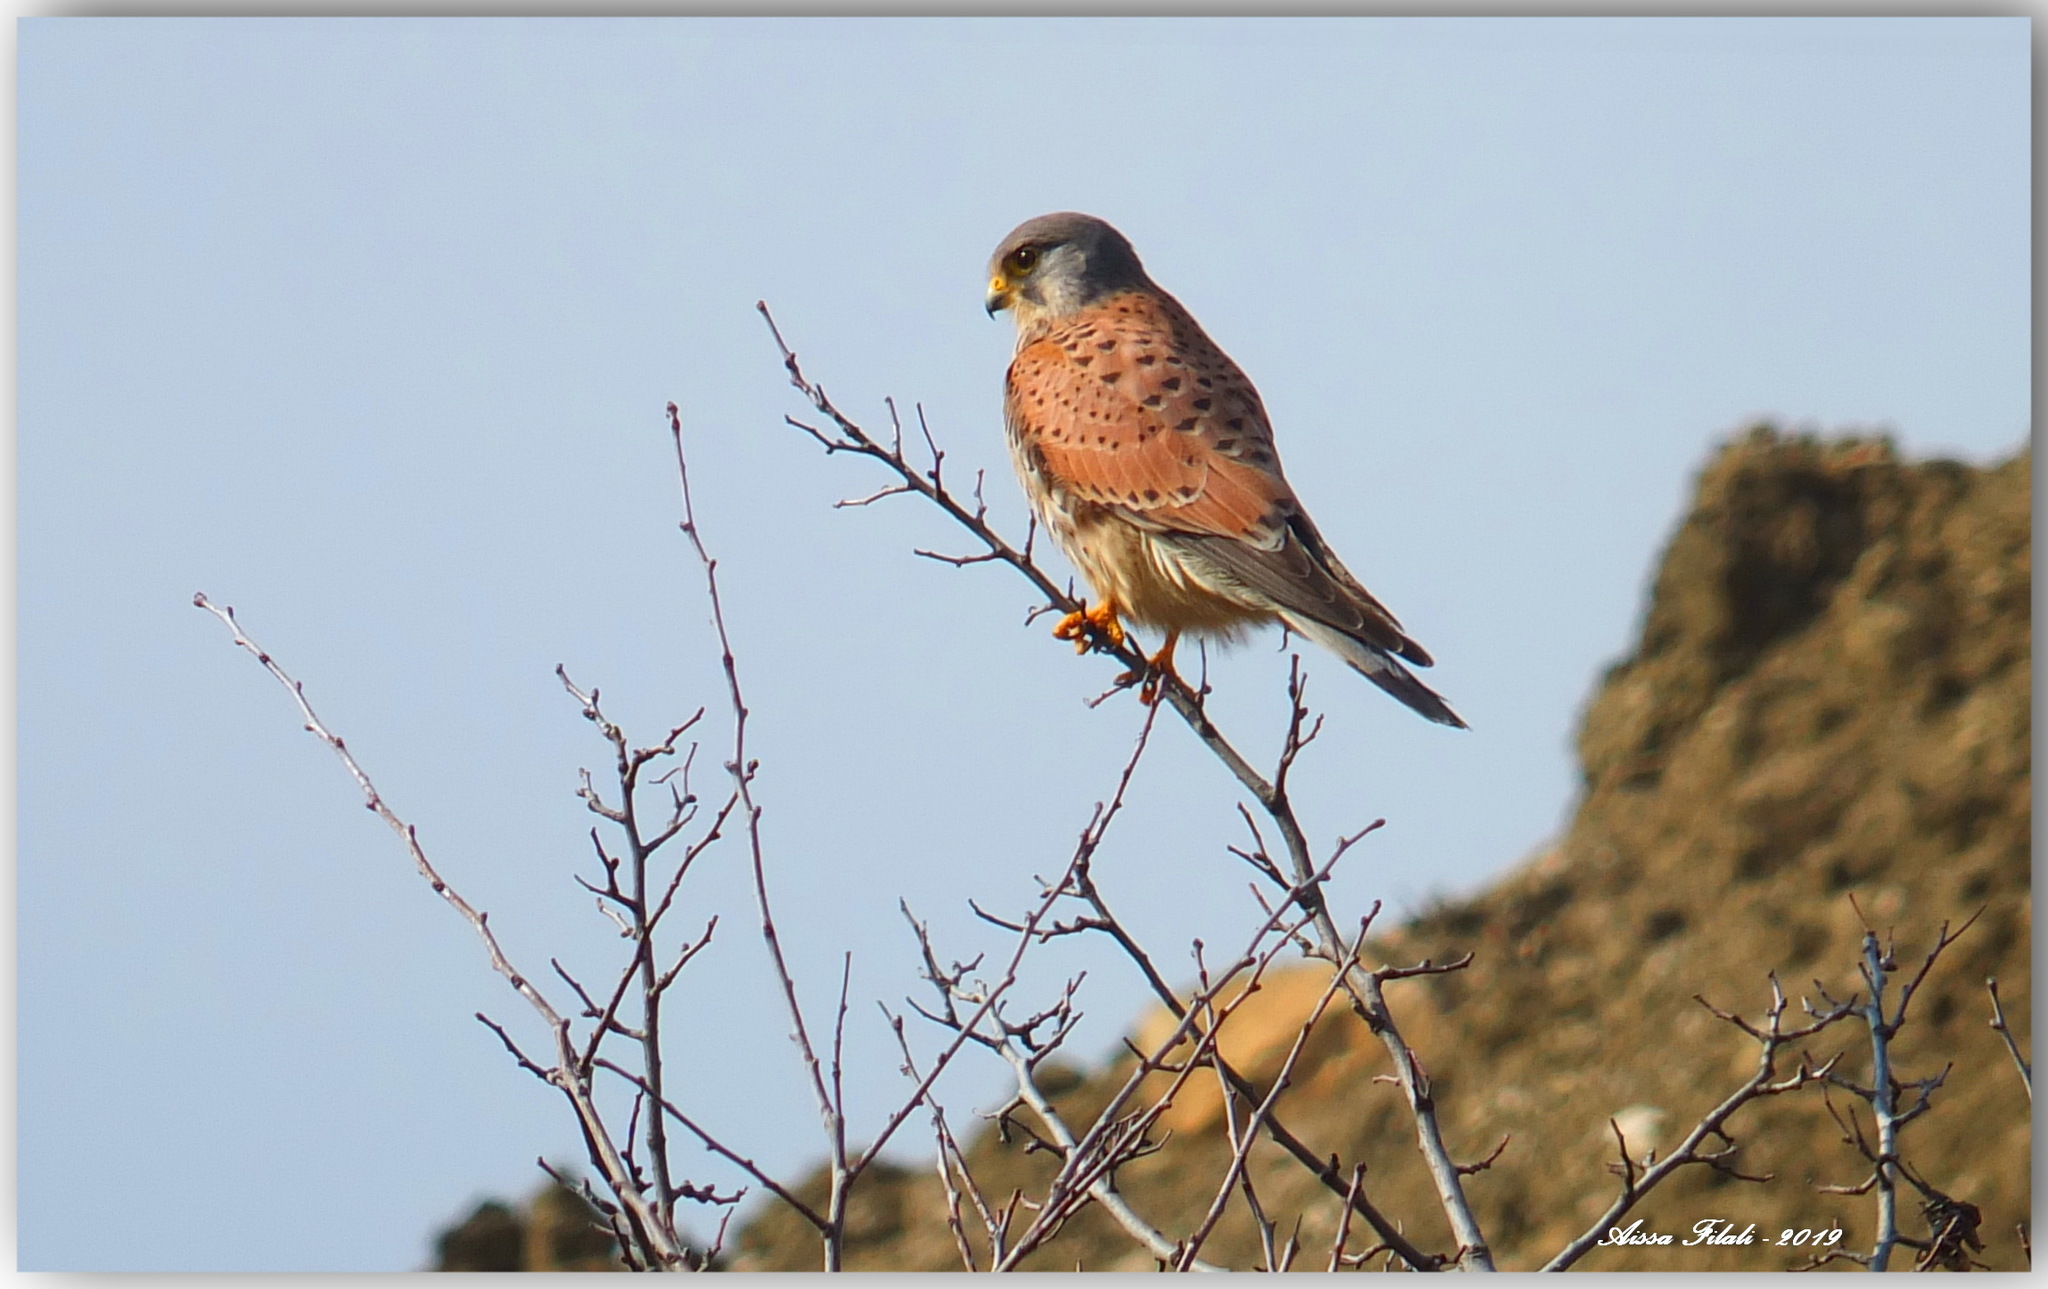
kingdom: Animalia
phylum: Chordata
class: Aves
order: Falconiformes
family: Falconidae
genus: Falco
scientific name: Falco tinnunculus
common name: Common kestrel
